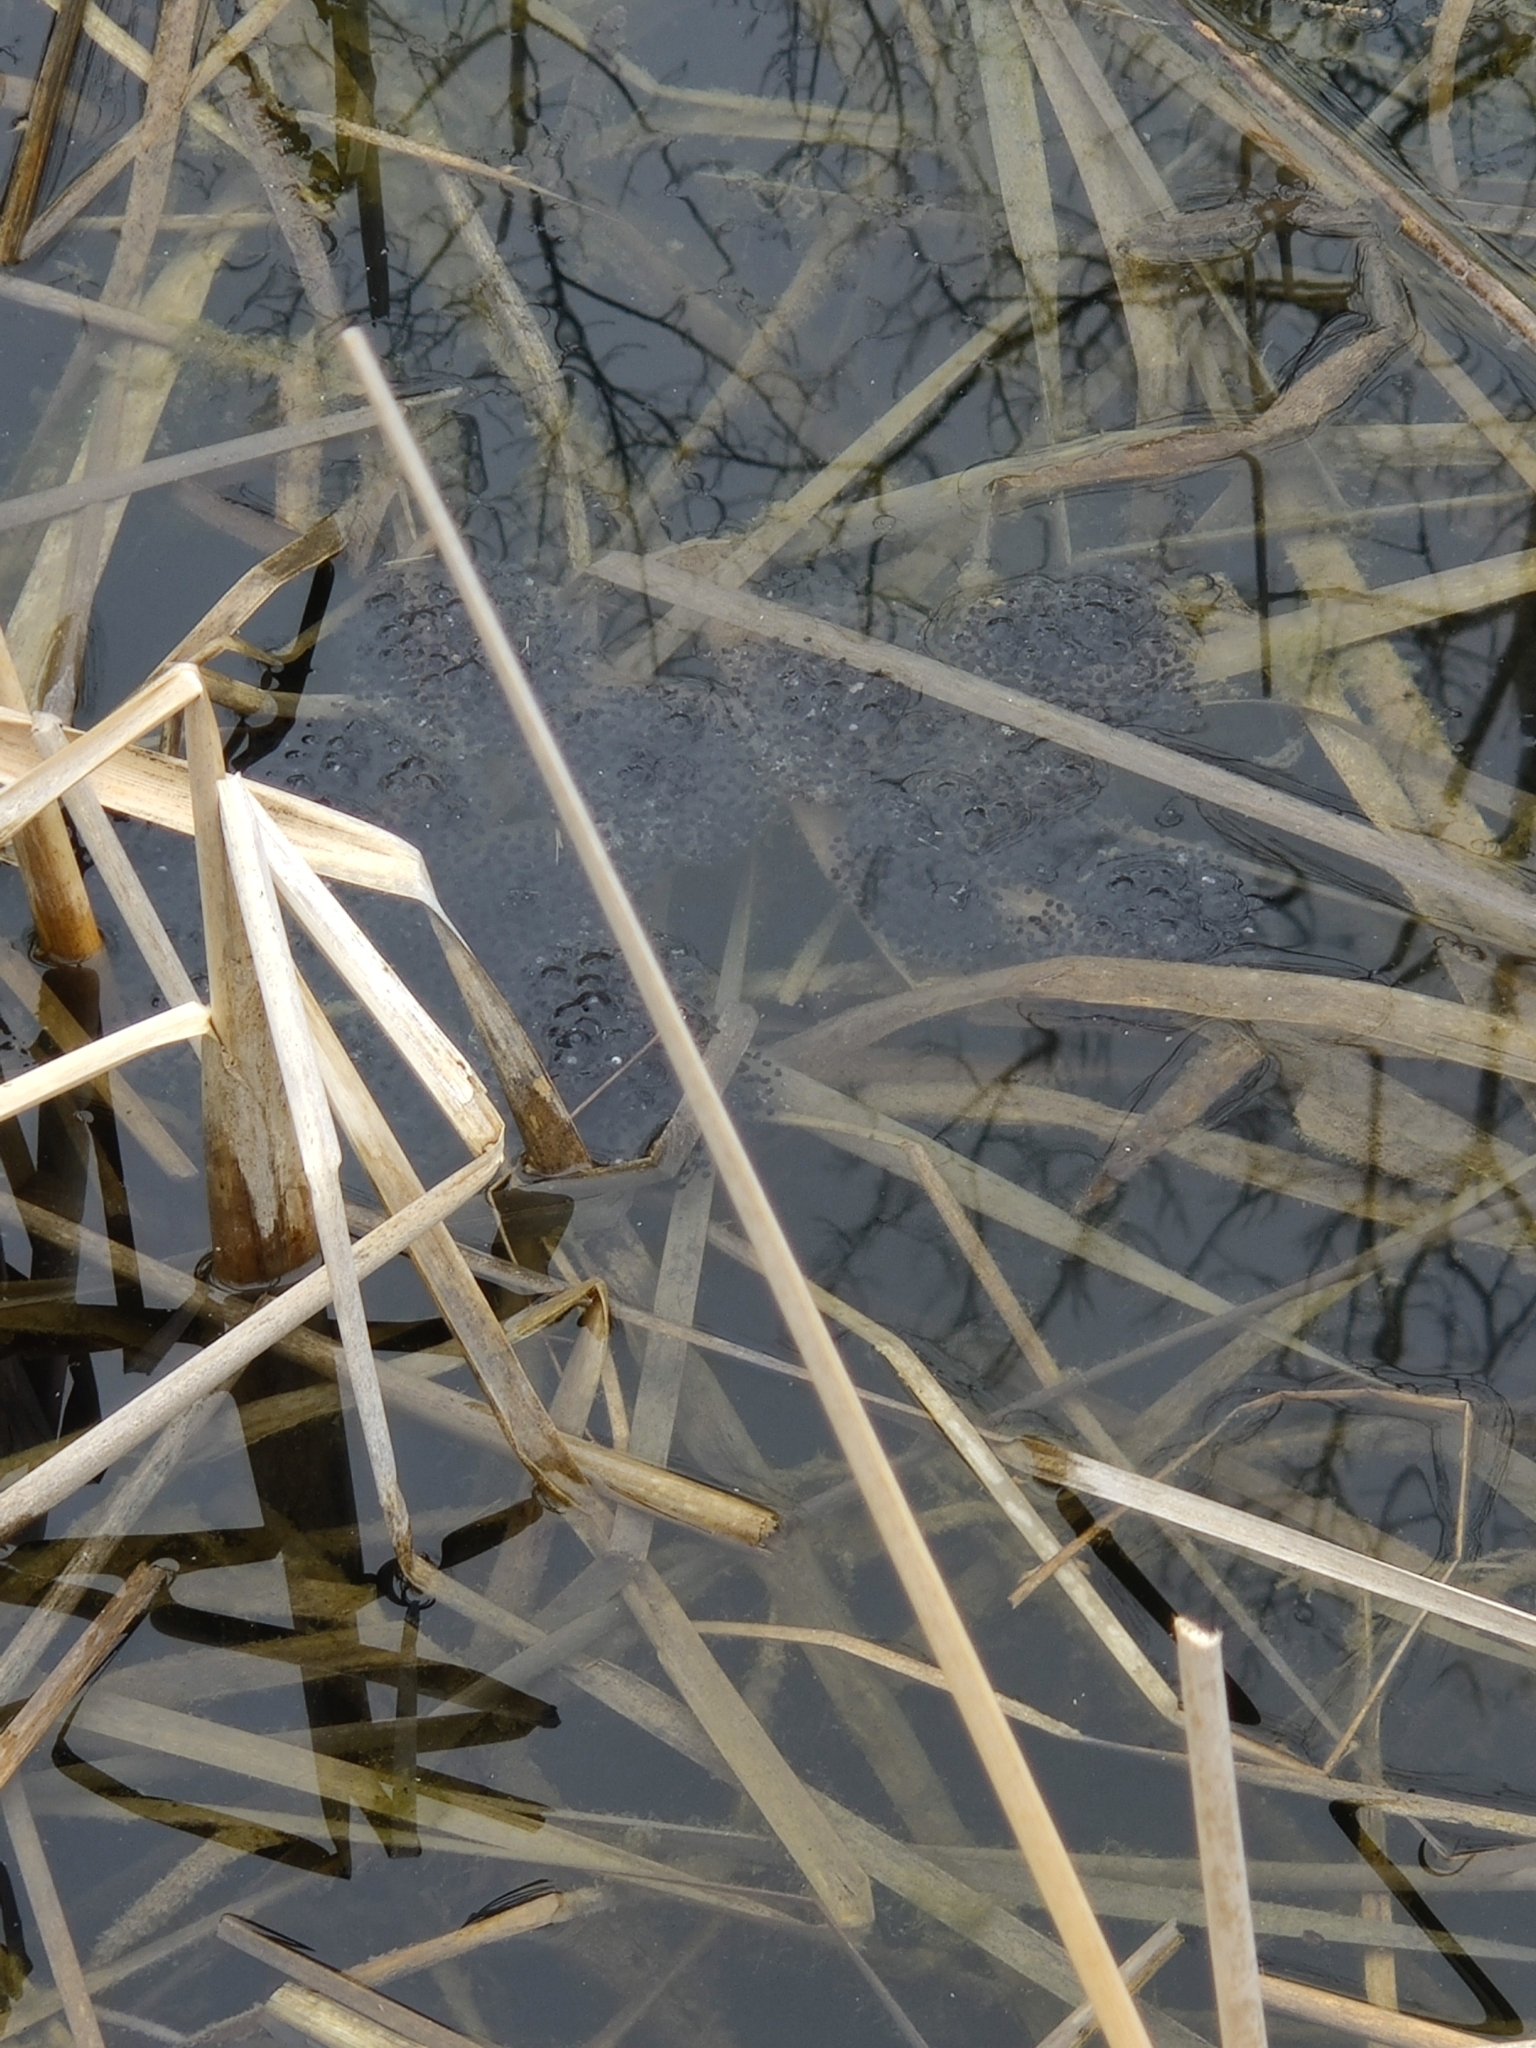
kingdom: Animalia
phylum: Chordata
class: Amphibia
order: Anura
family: Ranidae
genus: Lithobates
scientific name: Lithobates sylvaticus
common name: Wood frog
